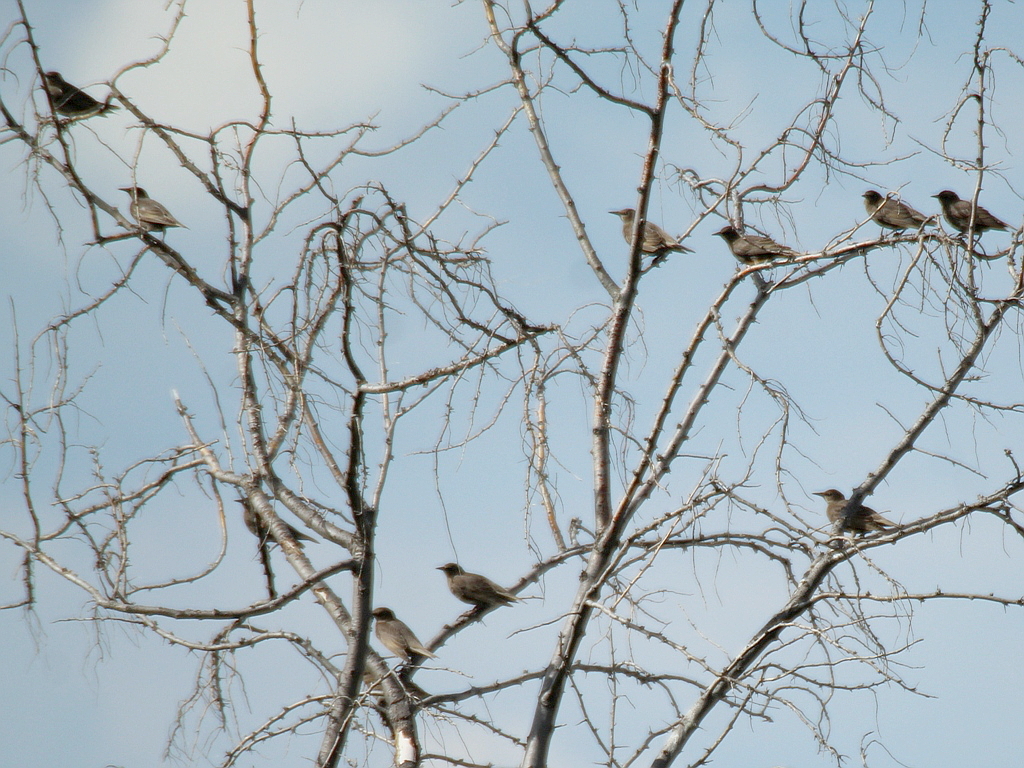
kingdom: Animalia
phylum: Chordata
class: Aves
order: Passeriformes
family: Sturnidae
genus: Sturnus
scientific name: Sturnus vulgaris
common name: Common starling
